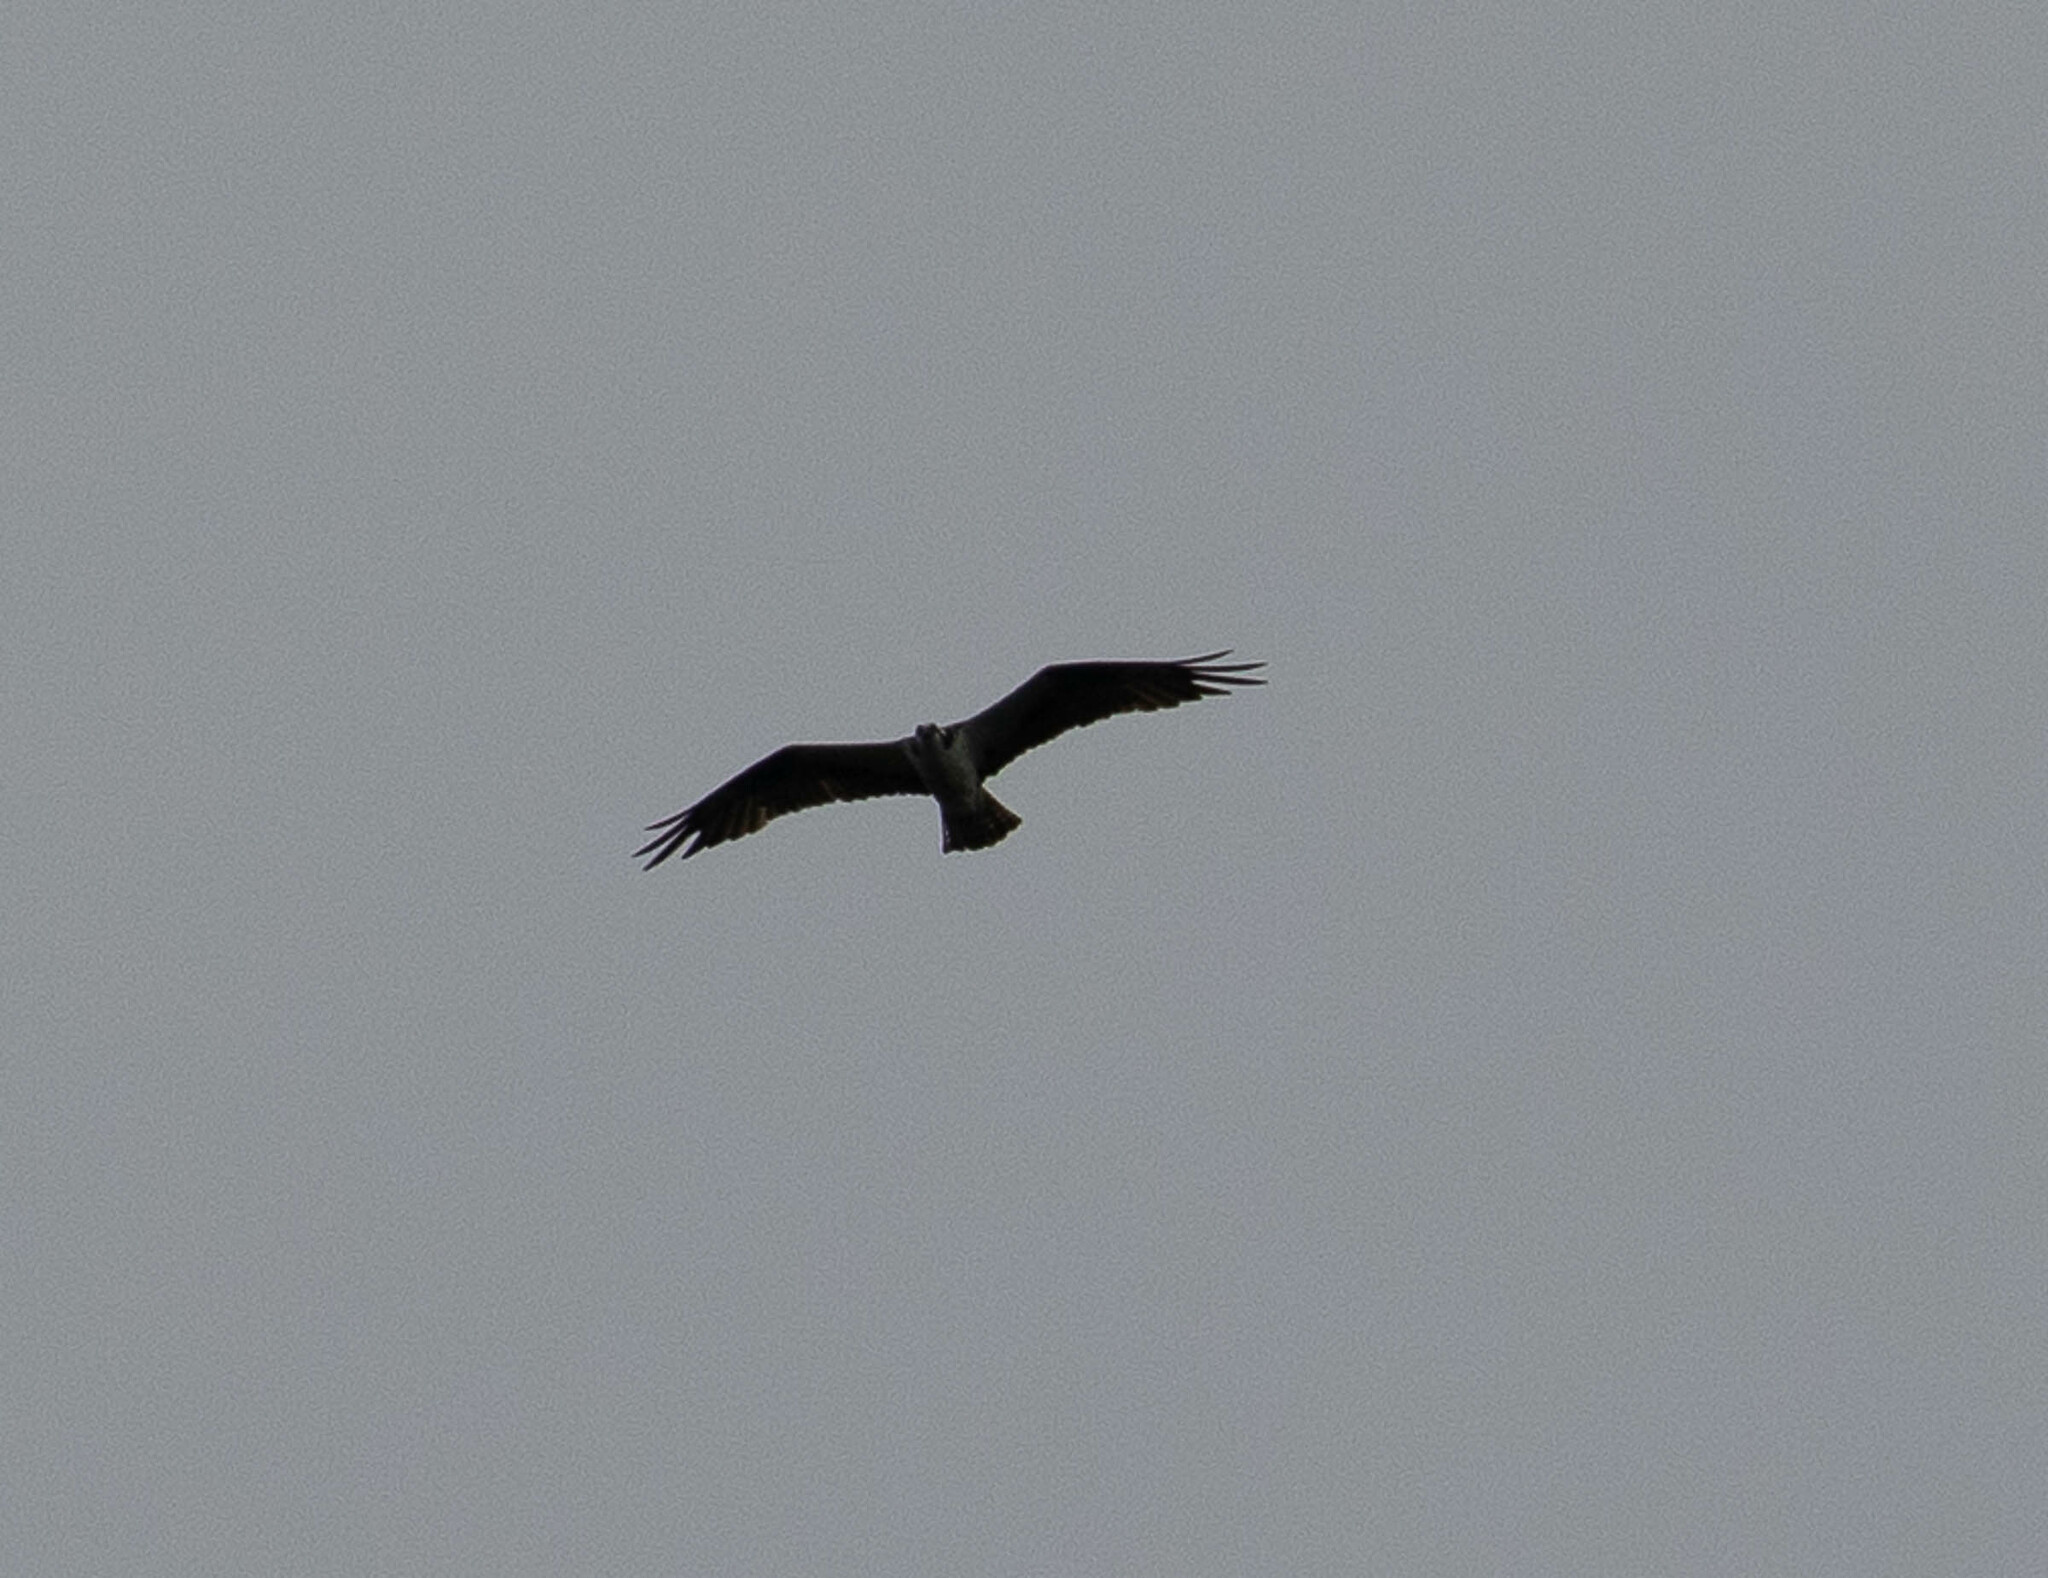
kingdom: Animalia
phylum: Chordata
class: Aves
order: Accipitriformes
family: Pandionidae
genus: Pandion
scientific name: Pandion haliaetus
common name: Osprey
